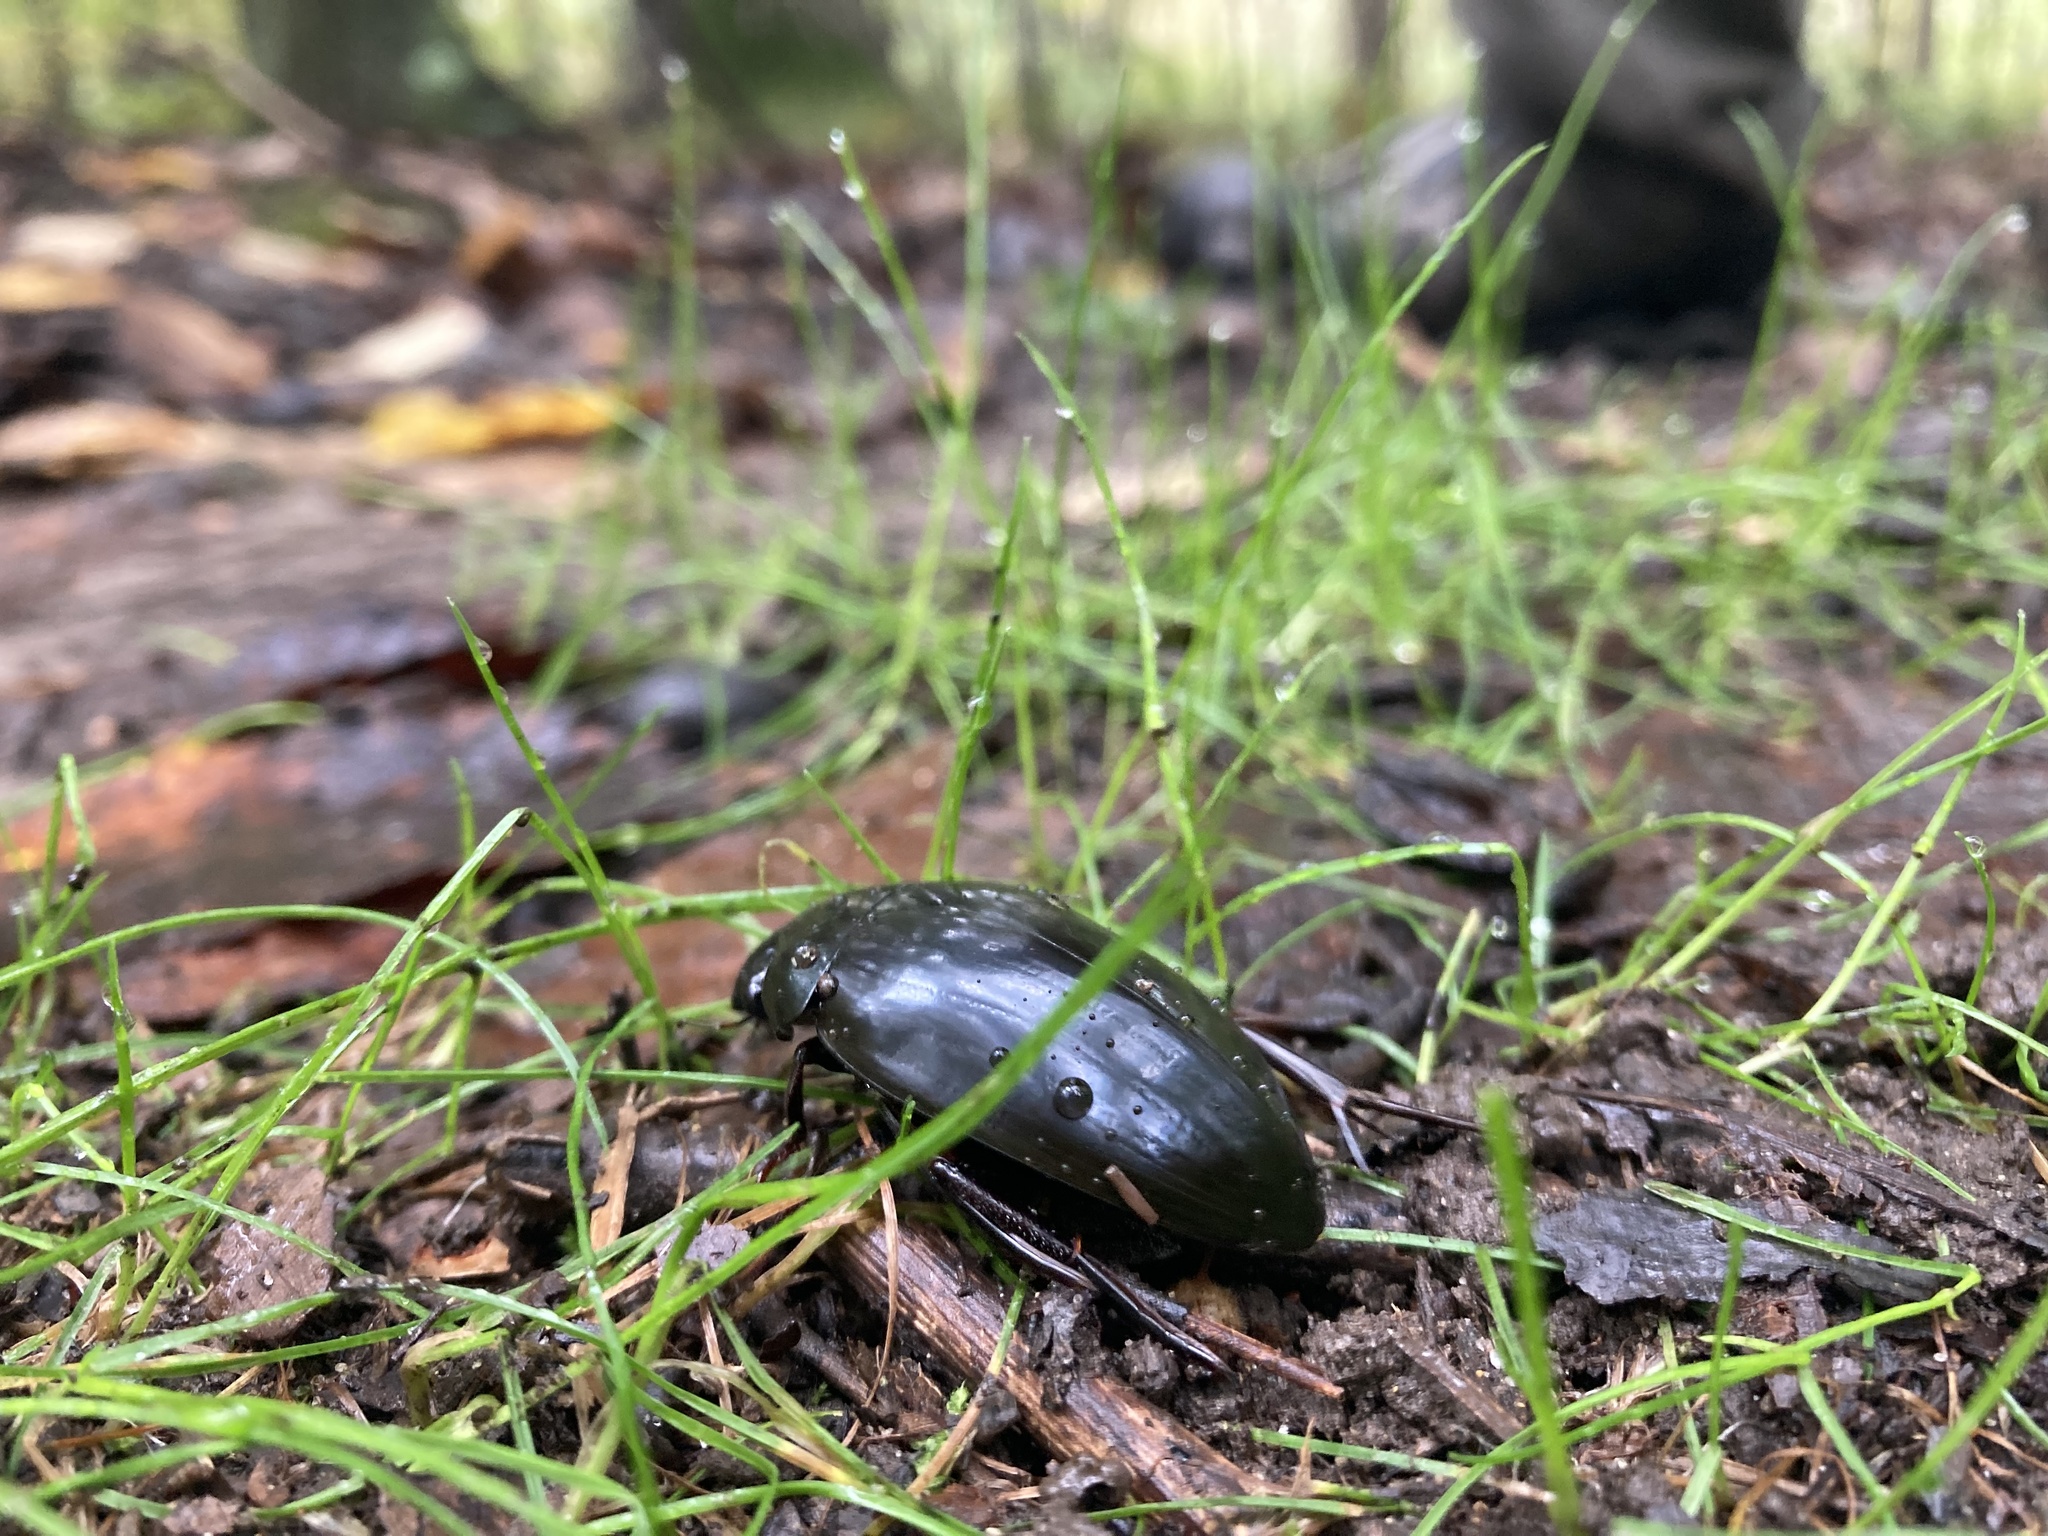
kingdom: Animalia
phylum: Arthropoda
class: Insecta
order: Coleoptera
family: Hydrophilidae
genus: Hydrophilus
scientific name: Hydrophilus
